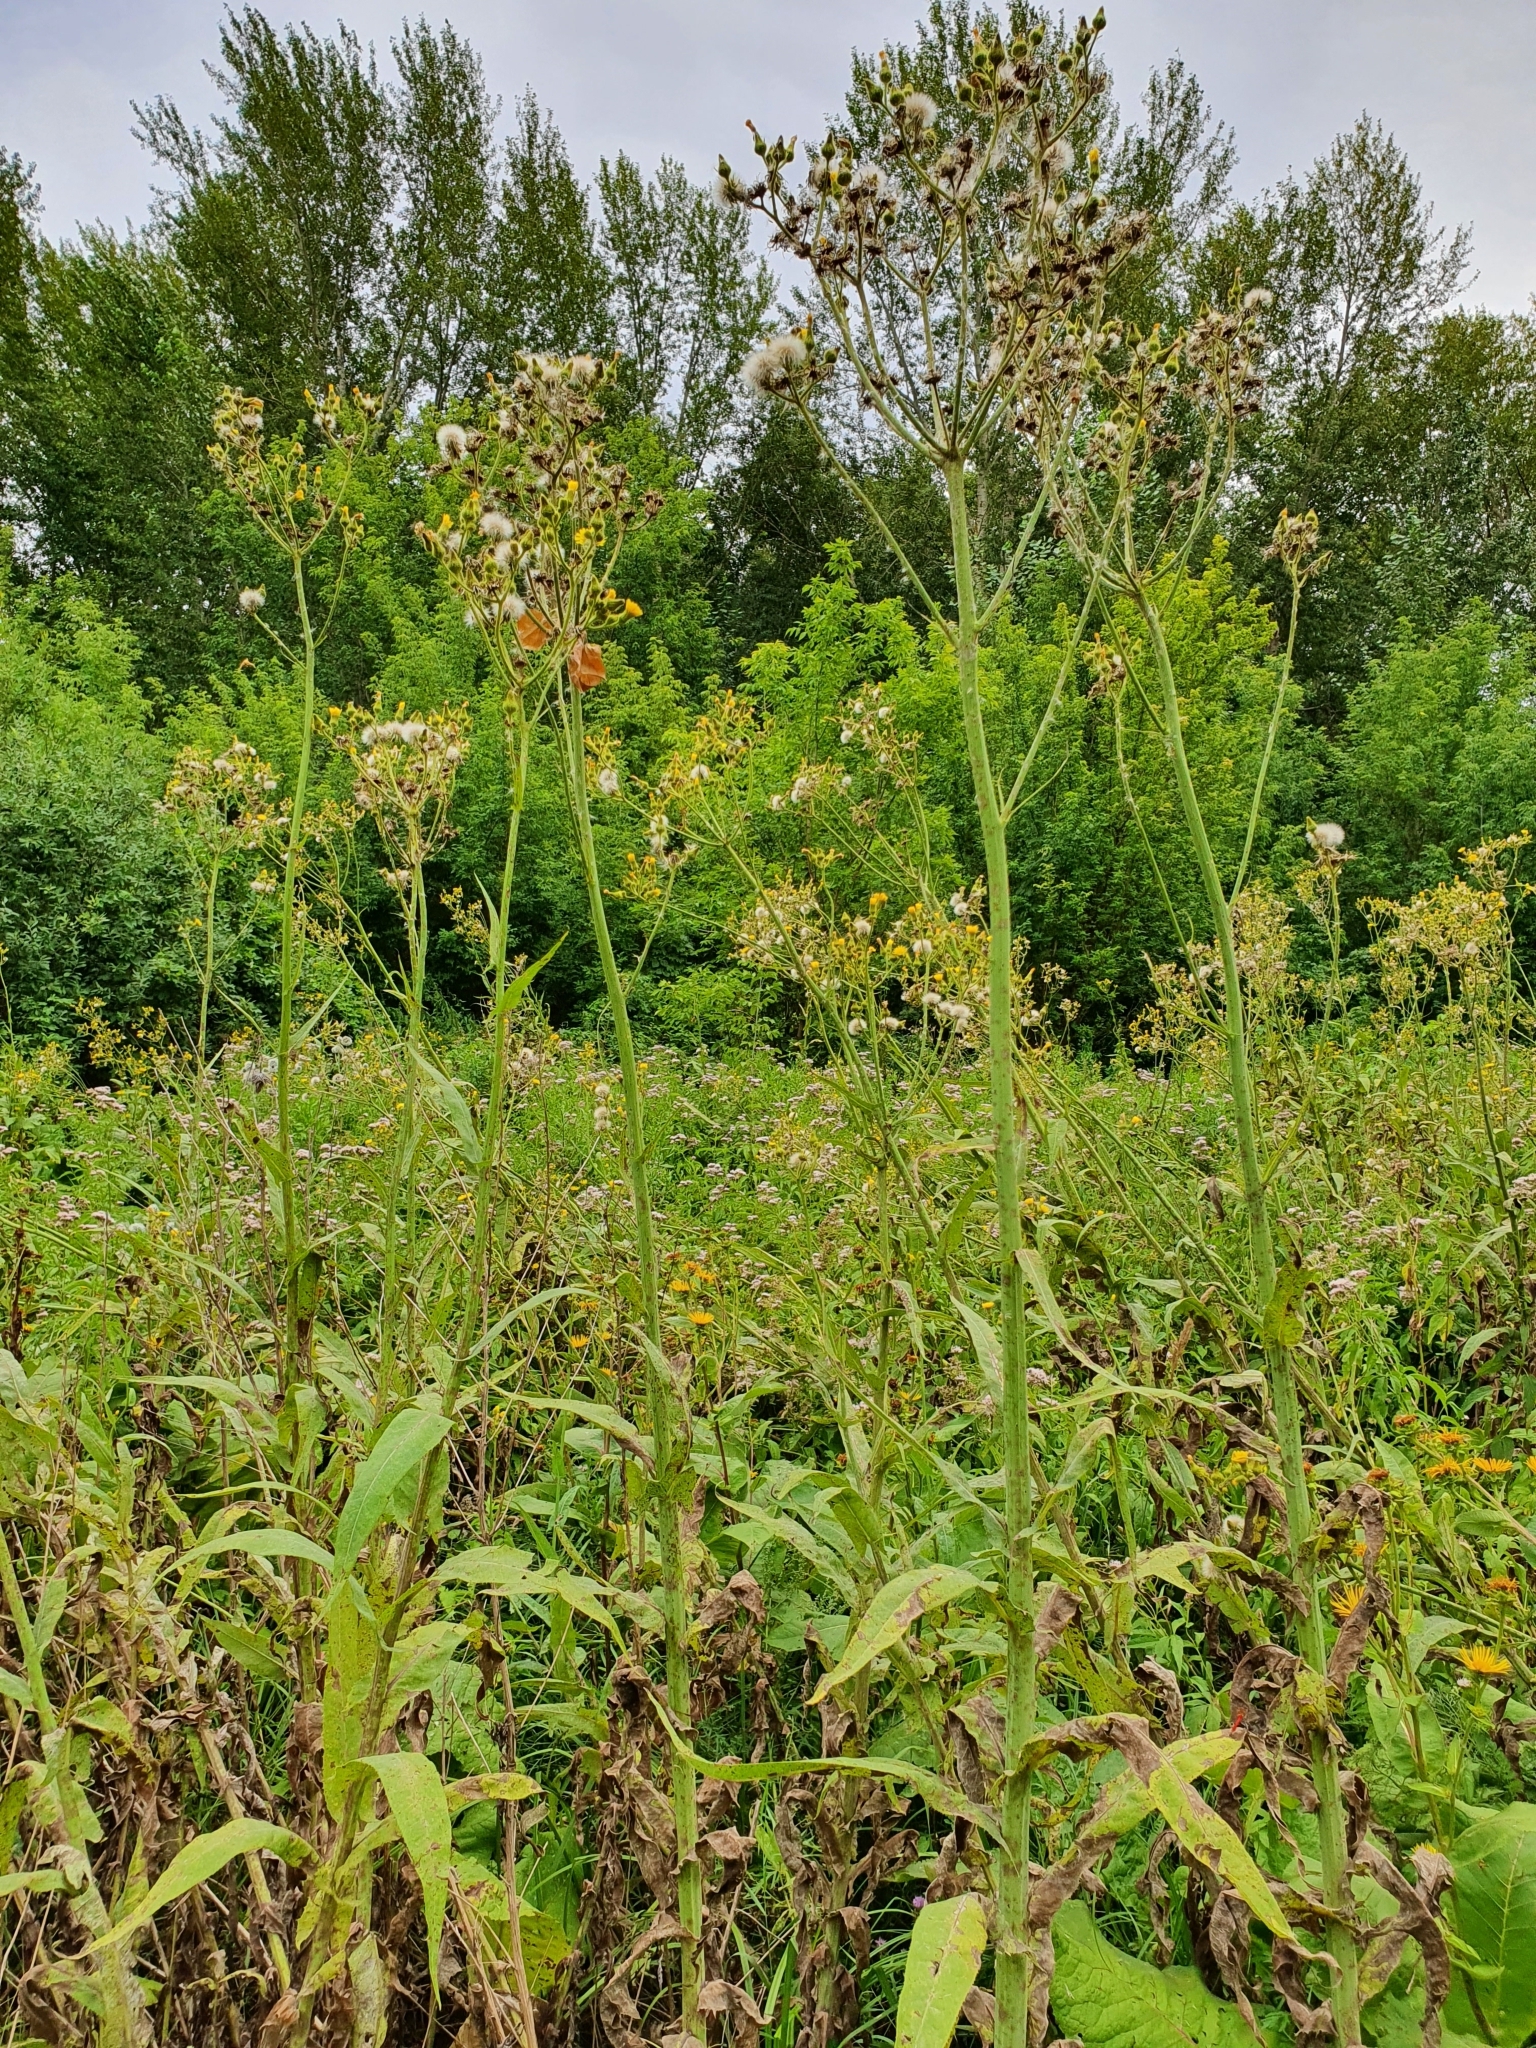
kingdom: Plantae
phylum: Tracheophyta
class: Magnoliopsida
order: Asterales
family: Asteraceae
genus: Sonchus
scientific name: Sonchus palustris
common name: Marsh sow-thistle
